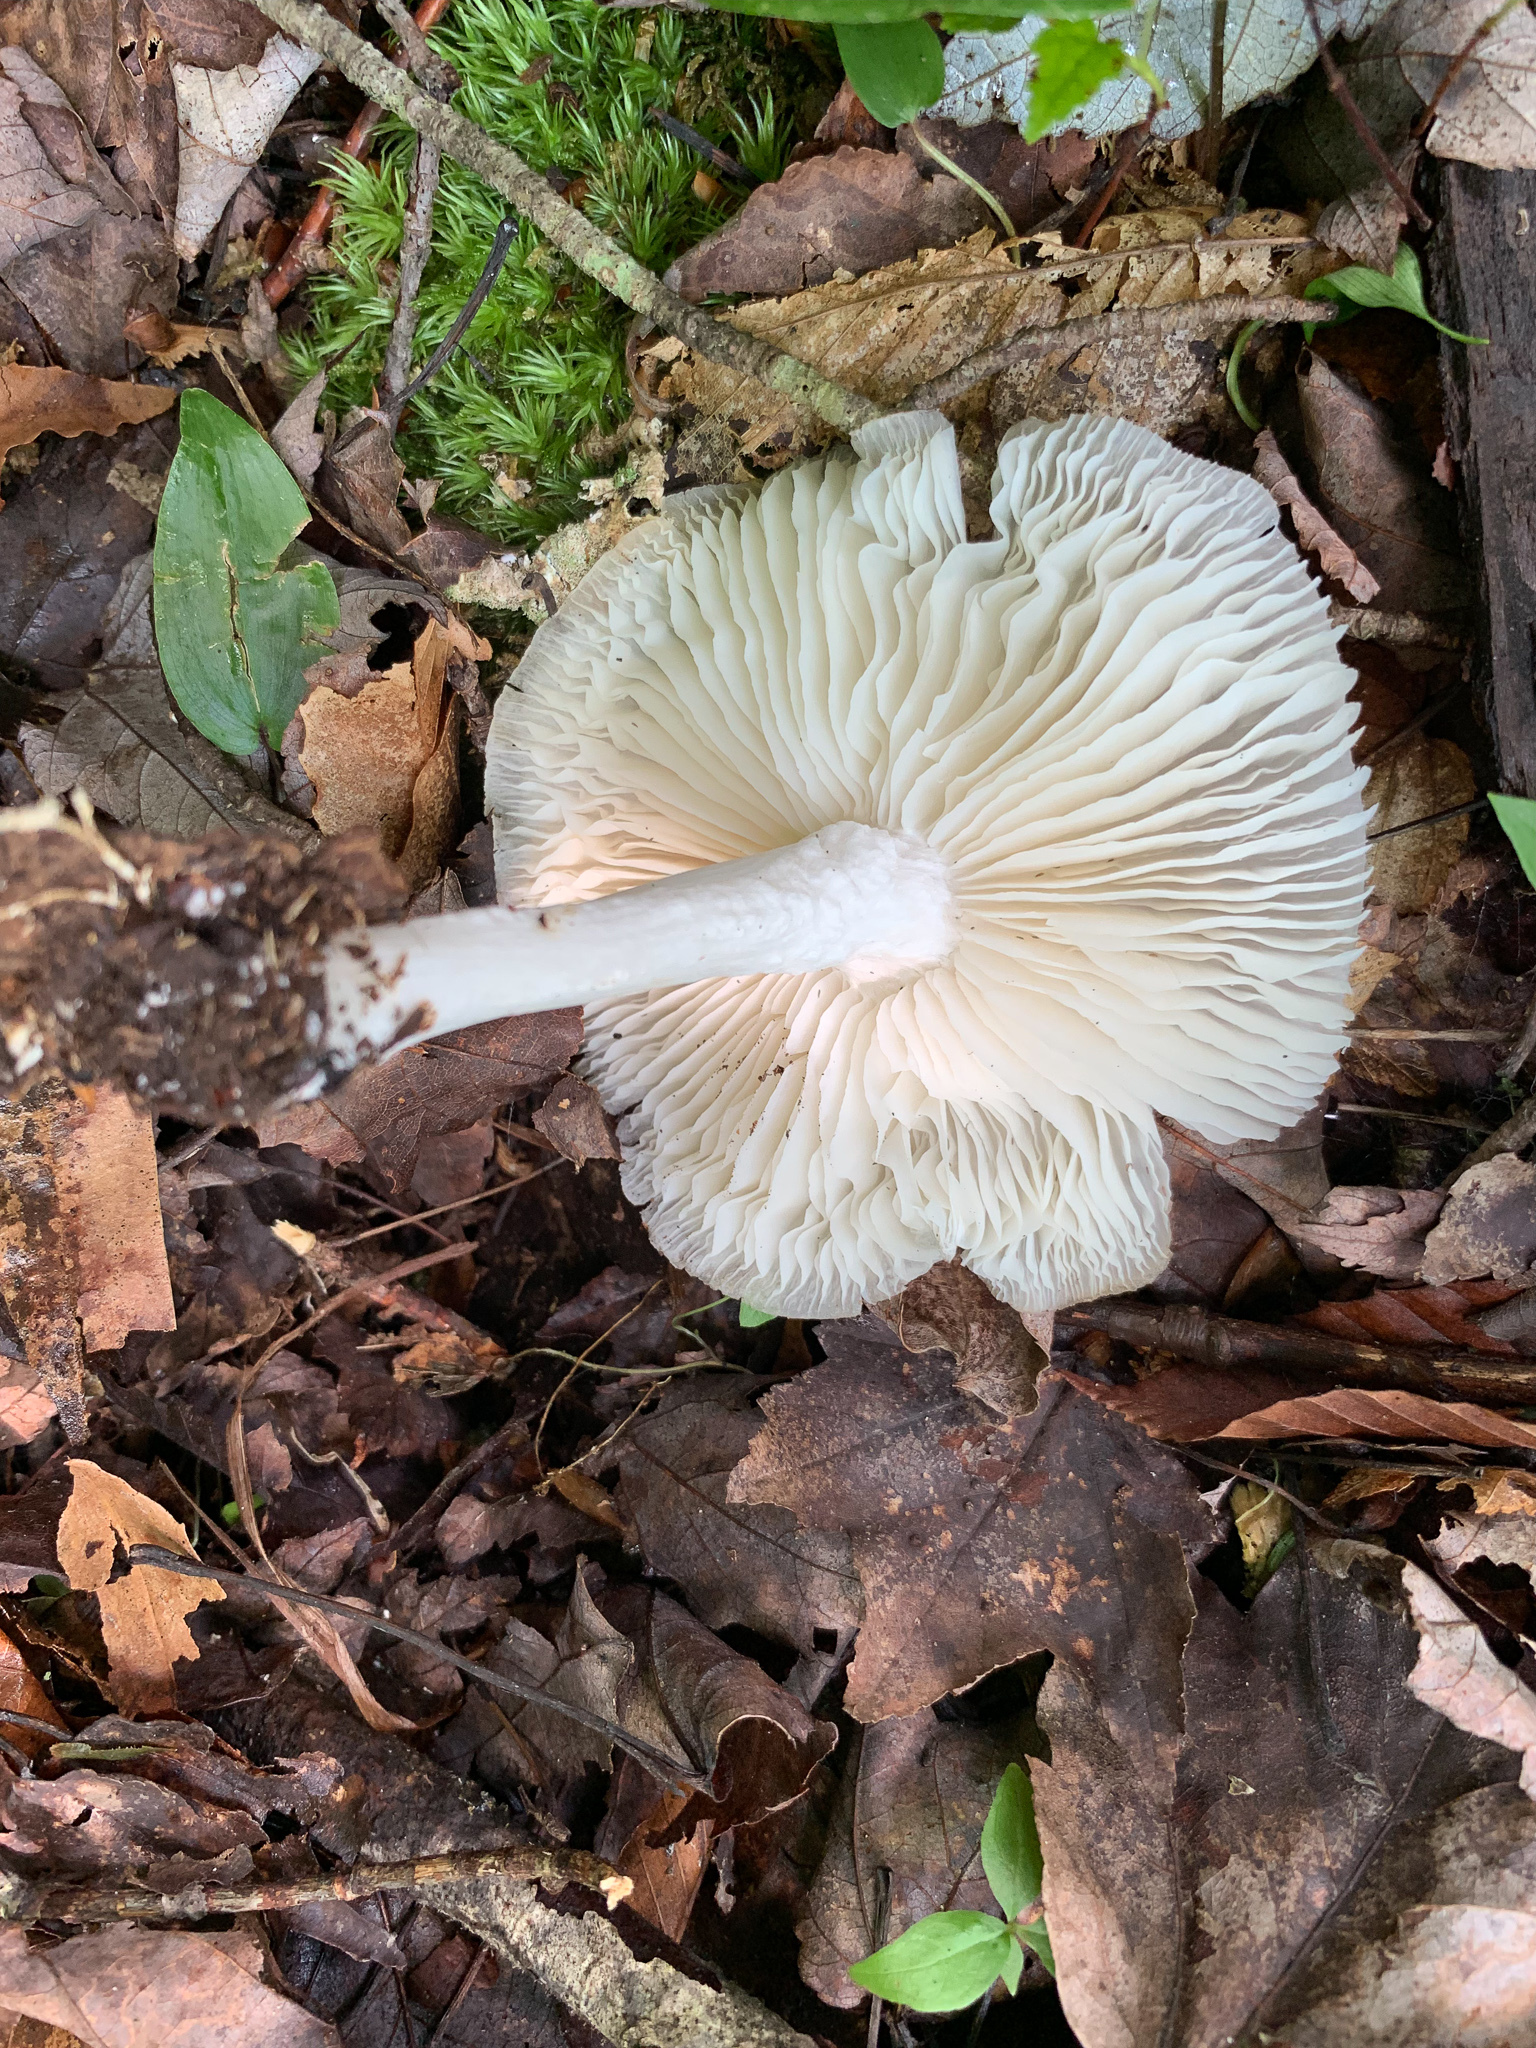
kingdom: Fungi
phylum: Basidiomycota
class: Agaricomycetes
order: Agaricales
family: Tricholomataceae
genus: Megacollybia
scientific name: Megacollybia rodmanii
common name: Eastern american platterful mushroom
